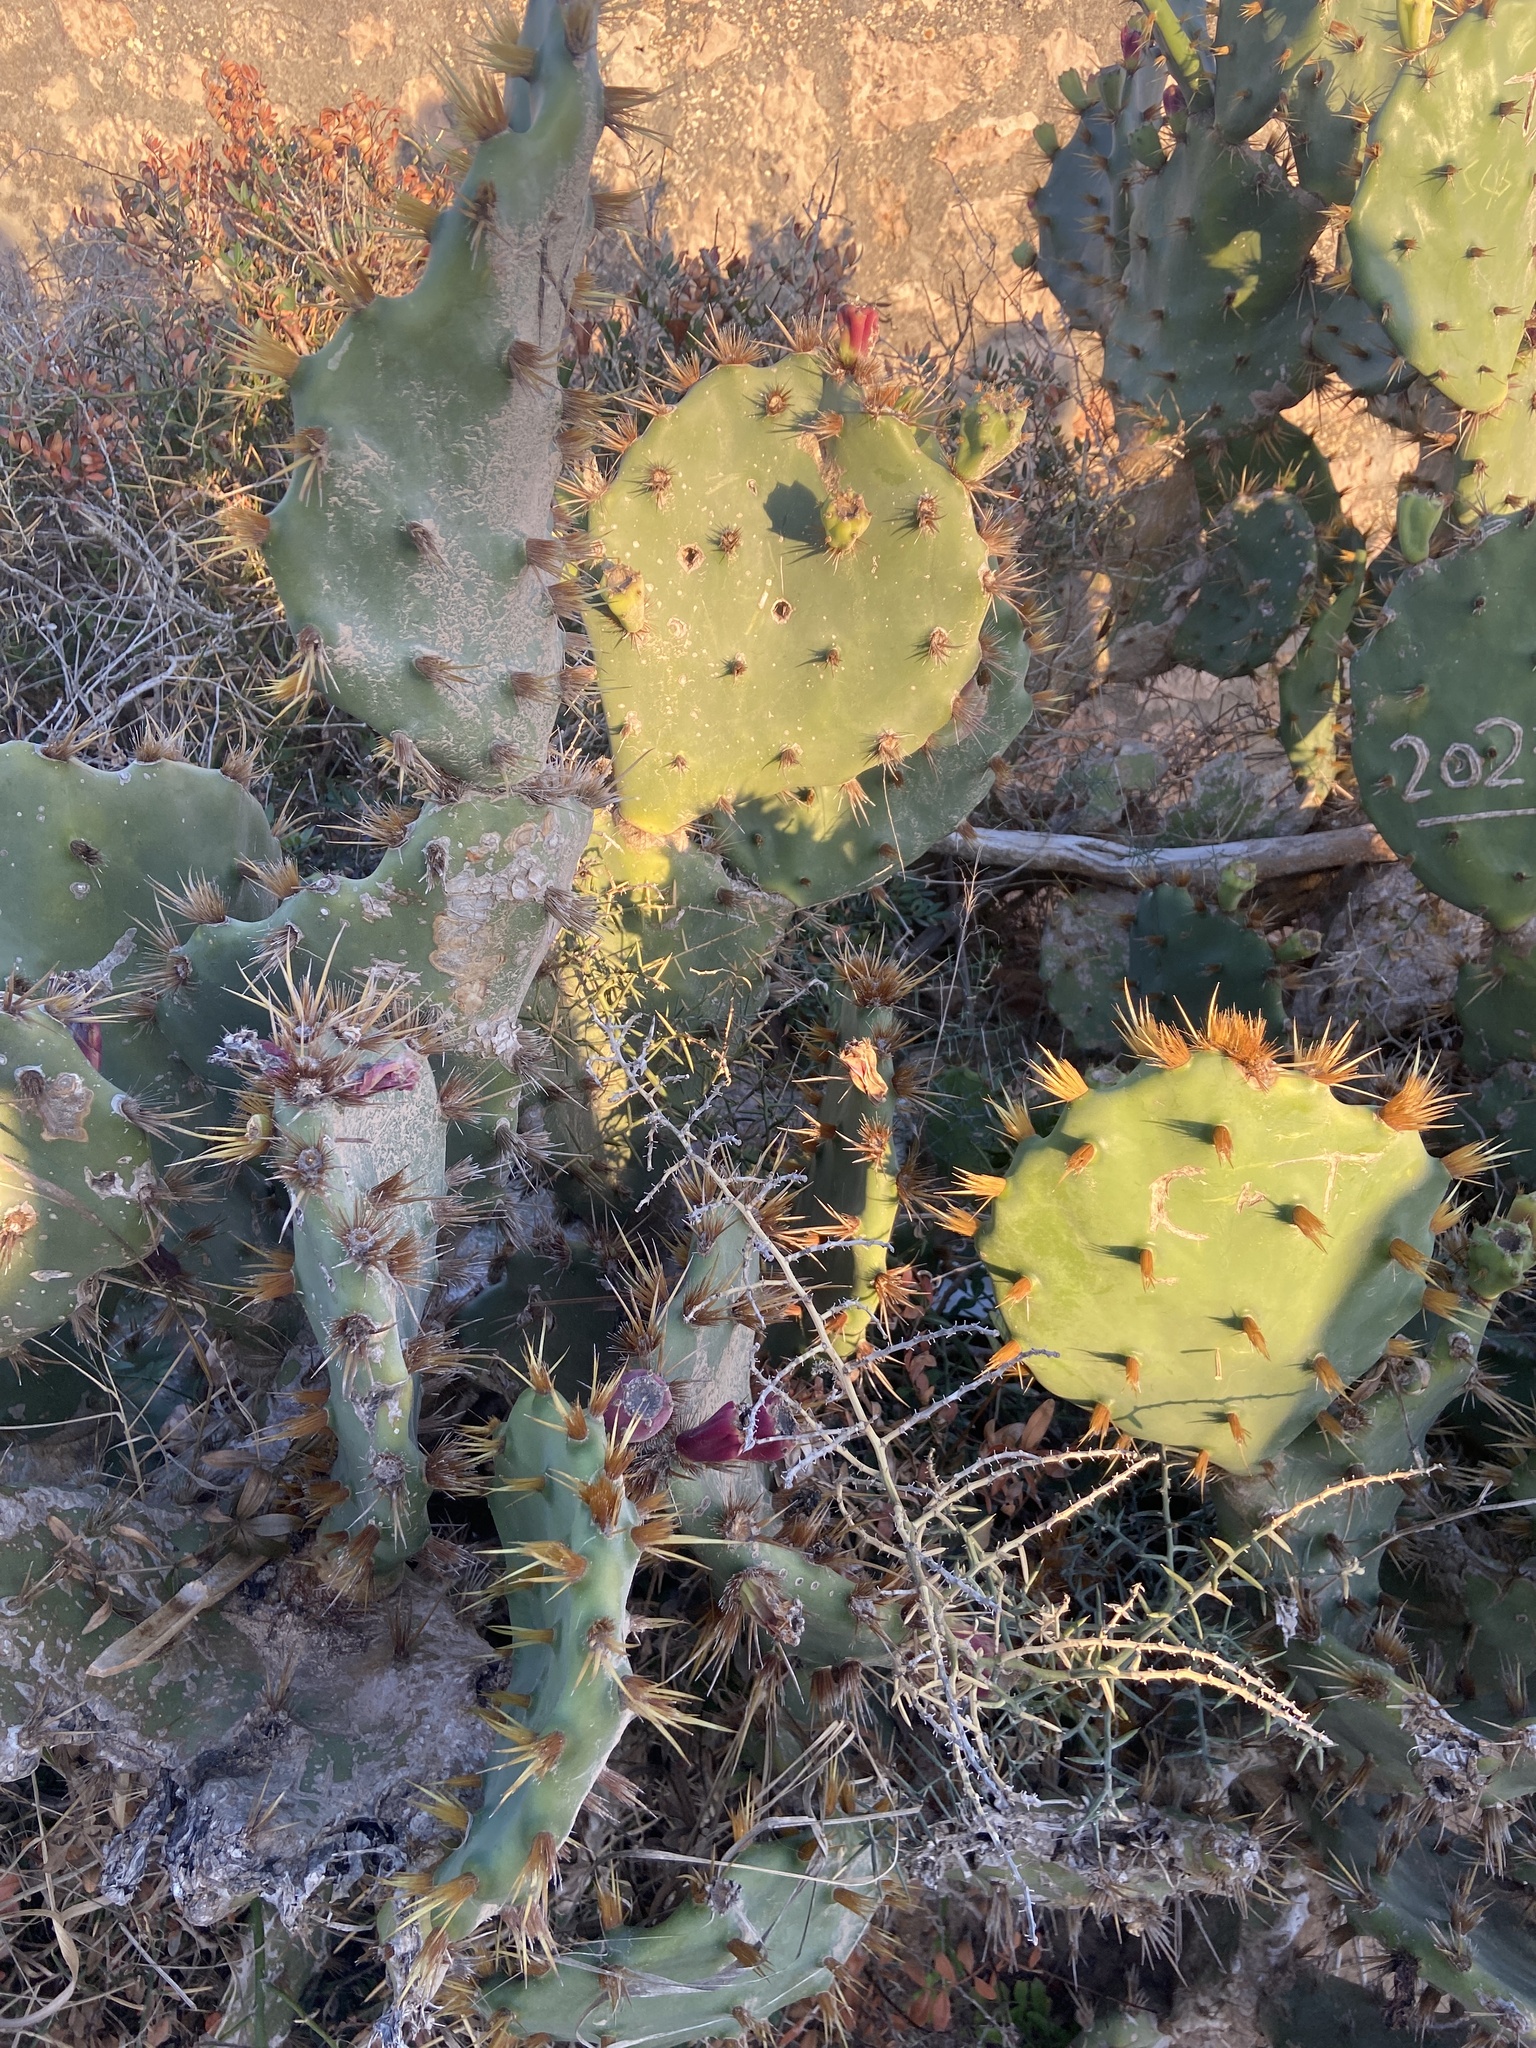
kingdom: Plantae
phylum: Tracheophyta
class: Magnoliopsida
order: Caryophyllales
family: Cactaceae
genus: Opuntia
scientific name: Opuntia dillenii
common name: Sour prickle
